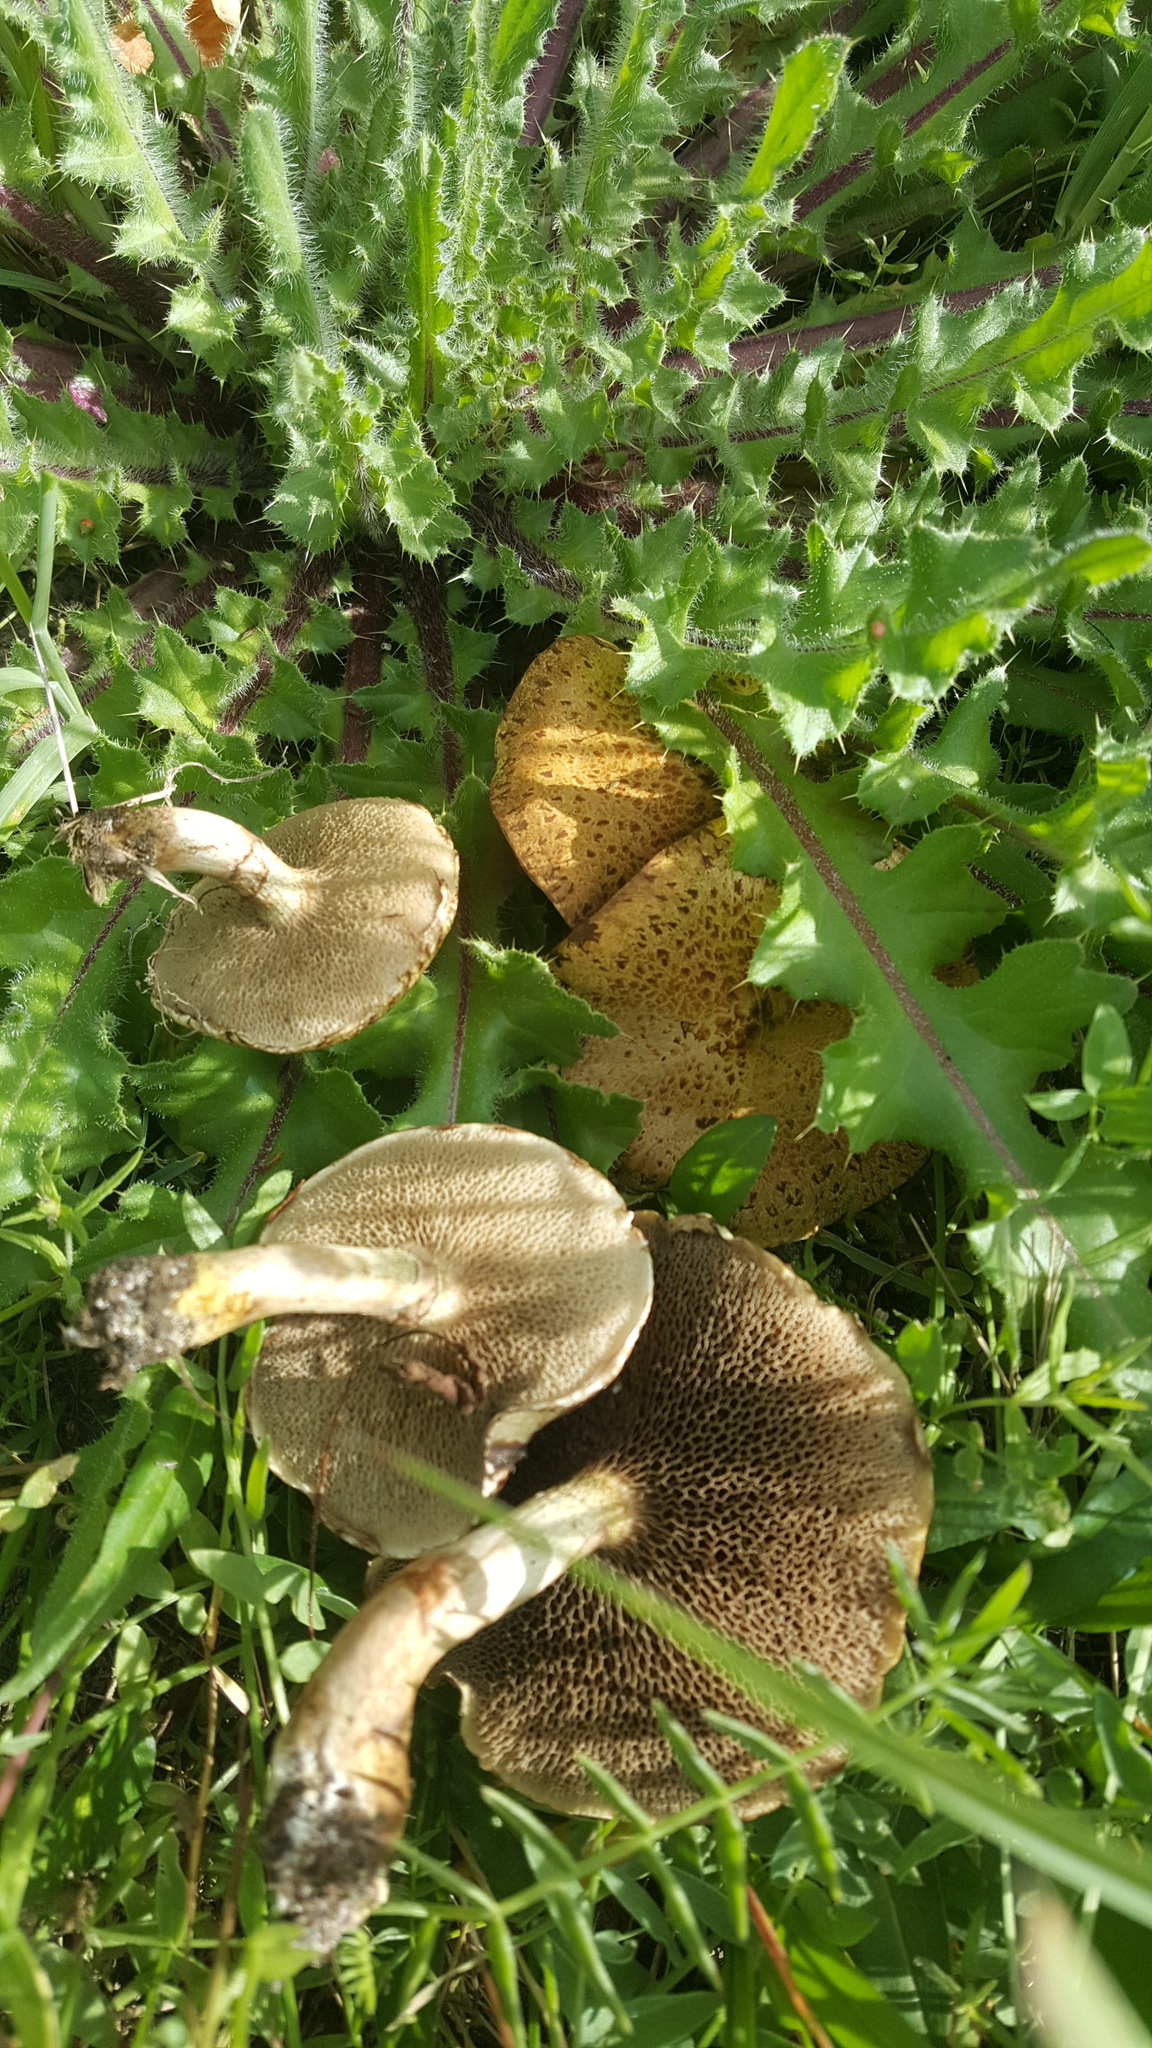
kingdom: Fungi
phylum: Basidiomycota
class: Agaricomycetes
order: Boletales
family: Suillaceae
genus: Suillus
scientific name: Suillus viscidus
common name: Sticky bolete
